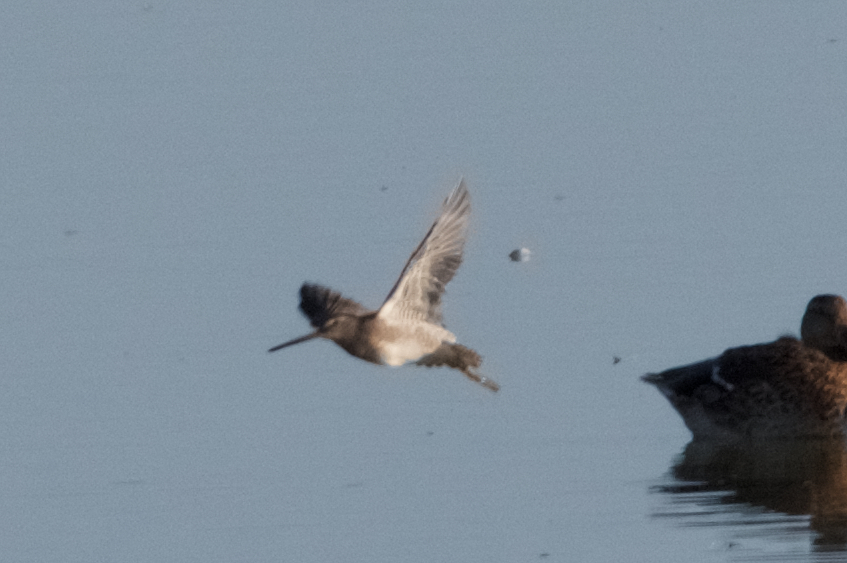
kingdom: Animalia
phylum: Chordata
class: Aves
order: Charadriiformes
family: Scolopacidae
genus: Limnodromus
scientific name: Limnodromus scolopaceus
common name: Long-billed dowitcher
